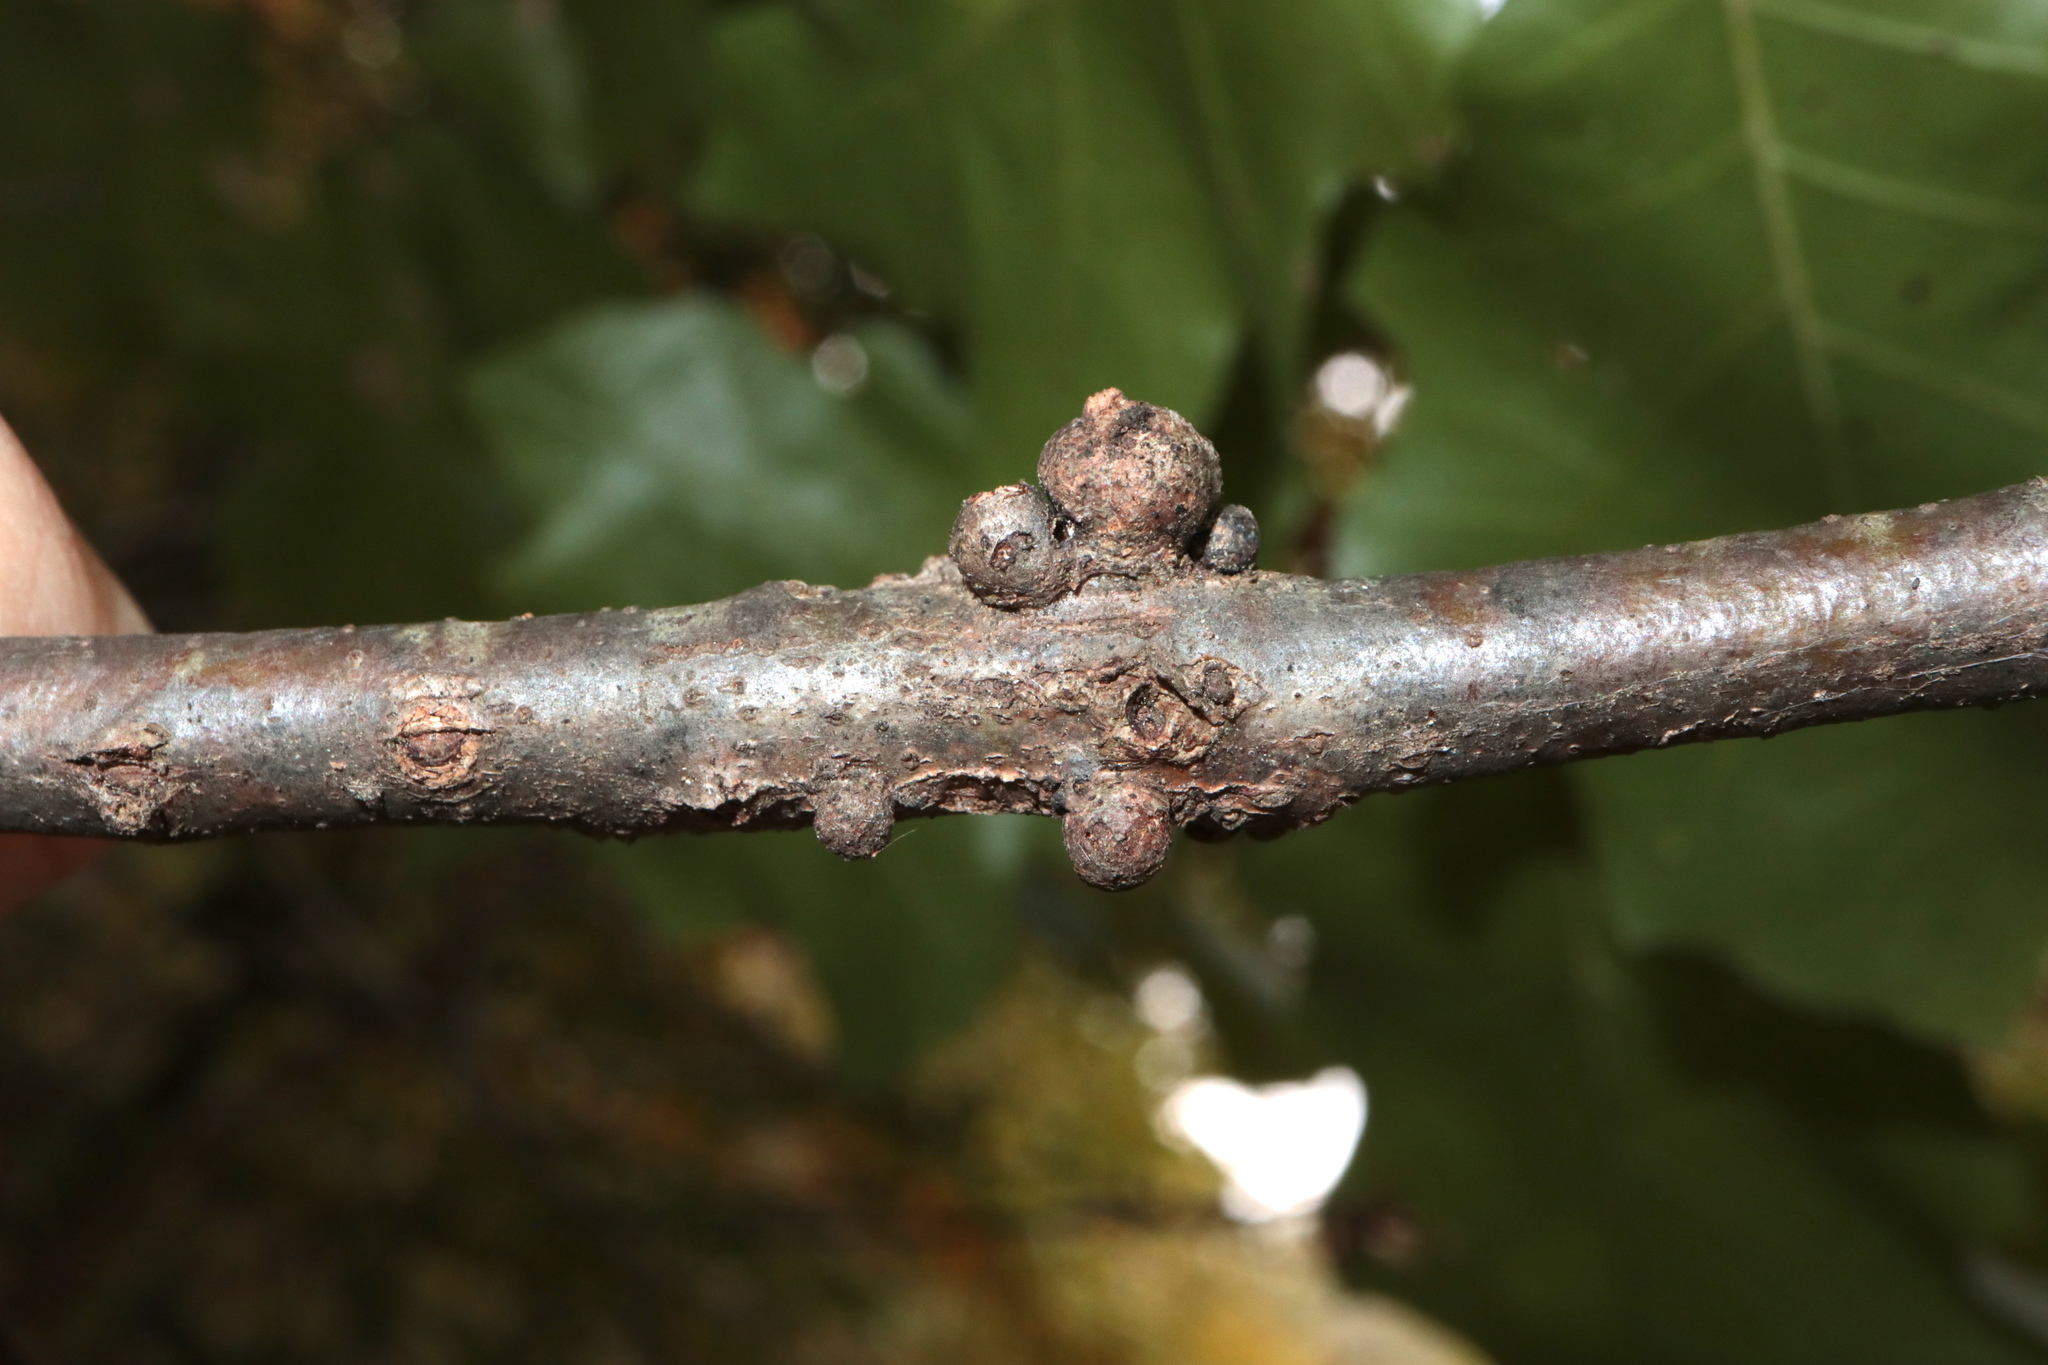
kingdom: Animalia
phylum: Arthropoda
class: Insecta
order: Hymenoptera
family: Cynipidae
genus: Synergus
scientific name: Synergus lignicola
